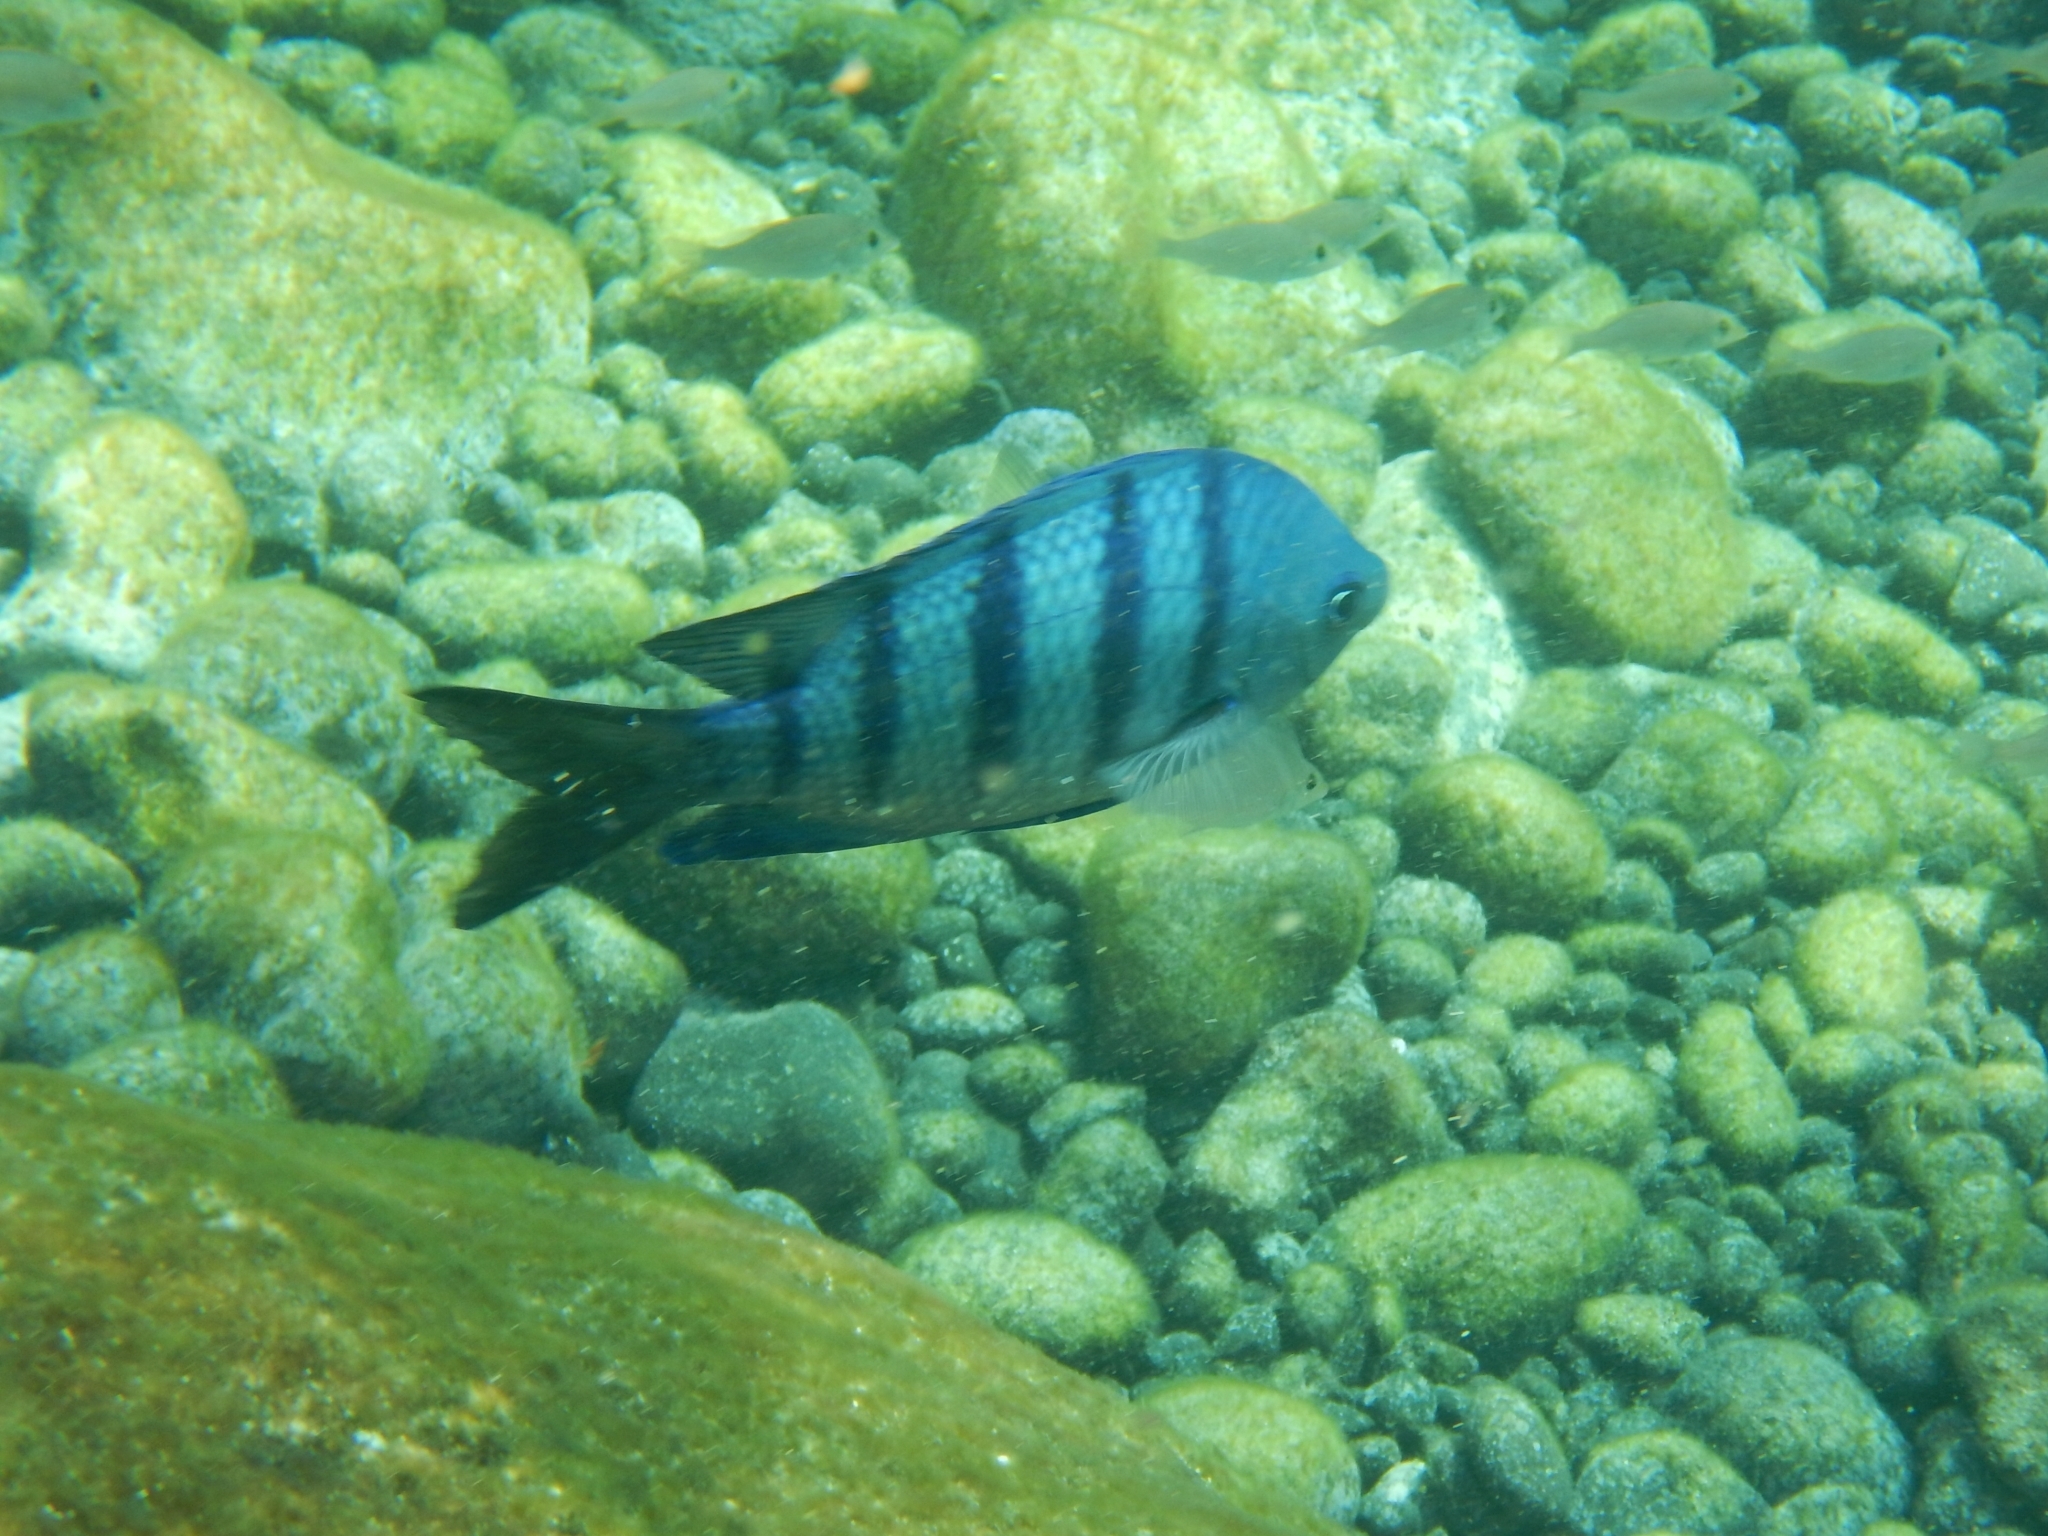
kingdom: Animalia
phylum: Chordata
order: Perciformes
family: Pomacentridae
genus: Abudefduf
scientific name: Abudefduf hoefleri
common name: African sergeant
